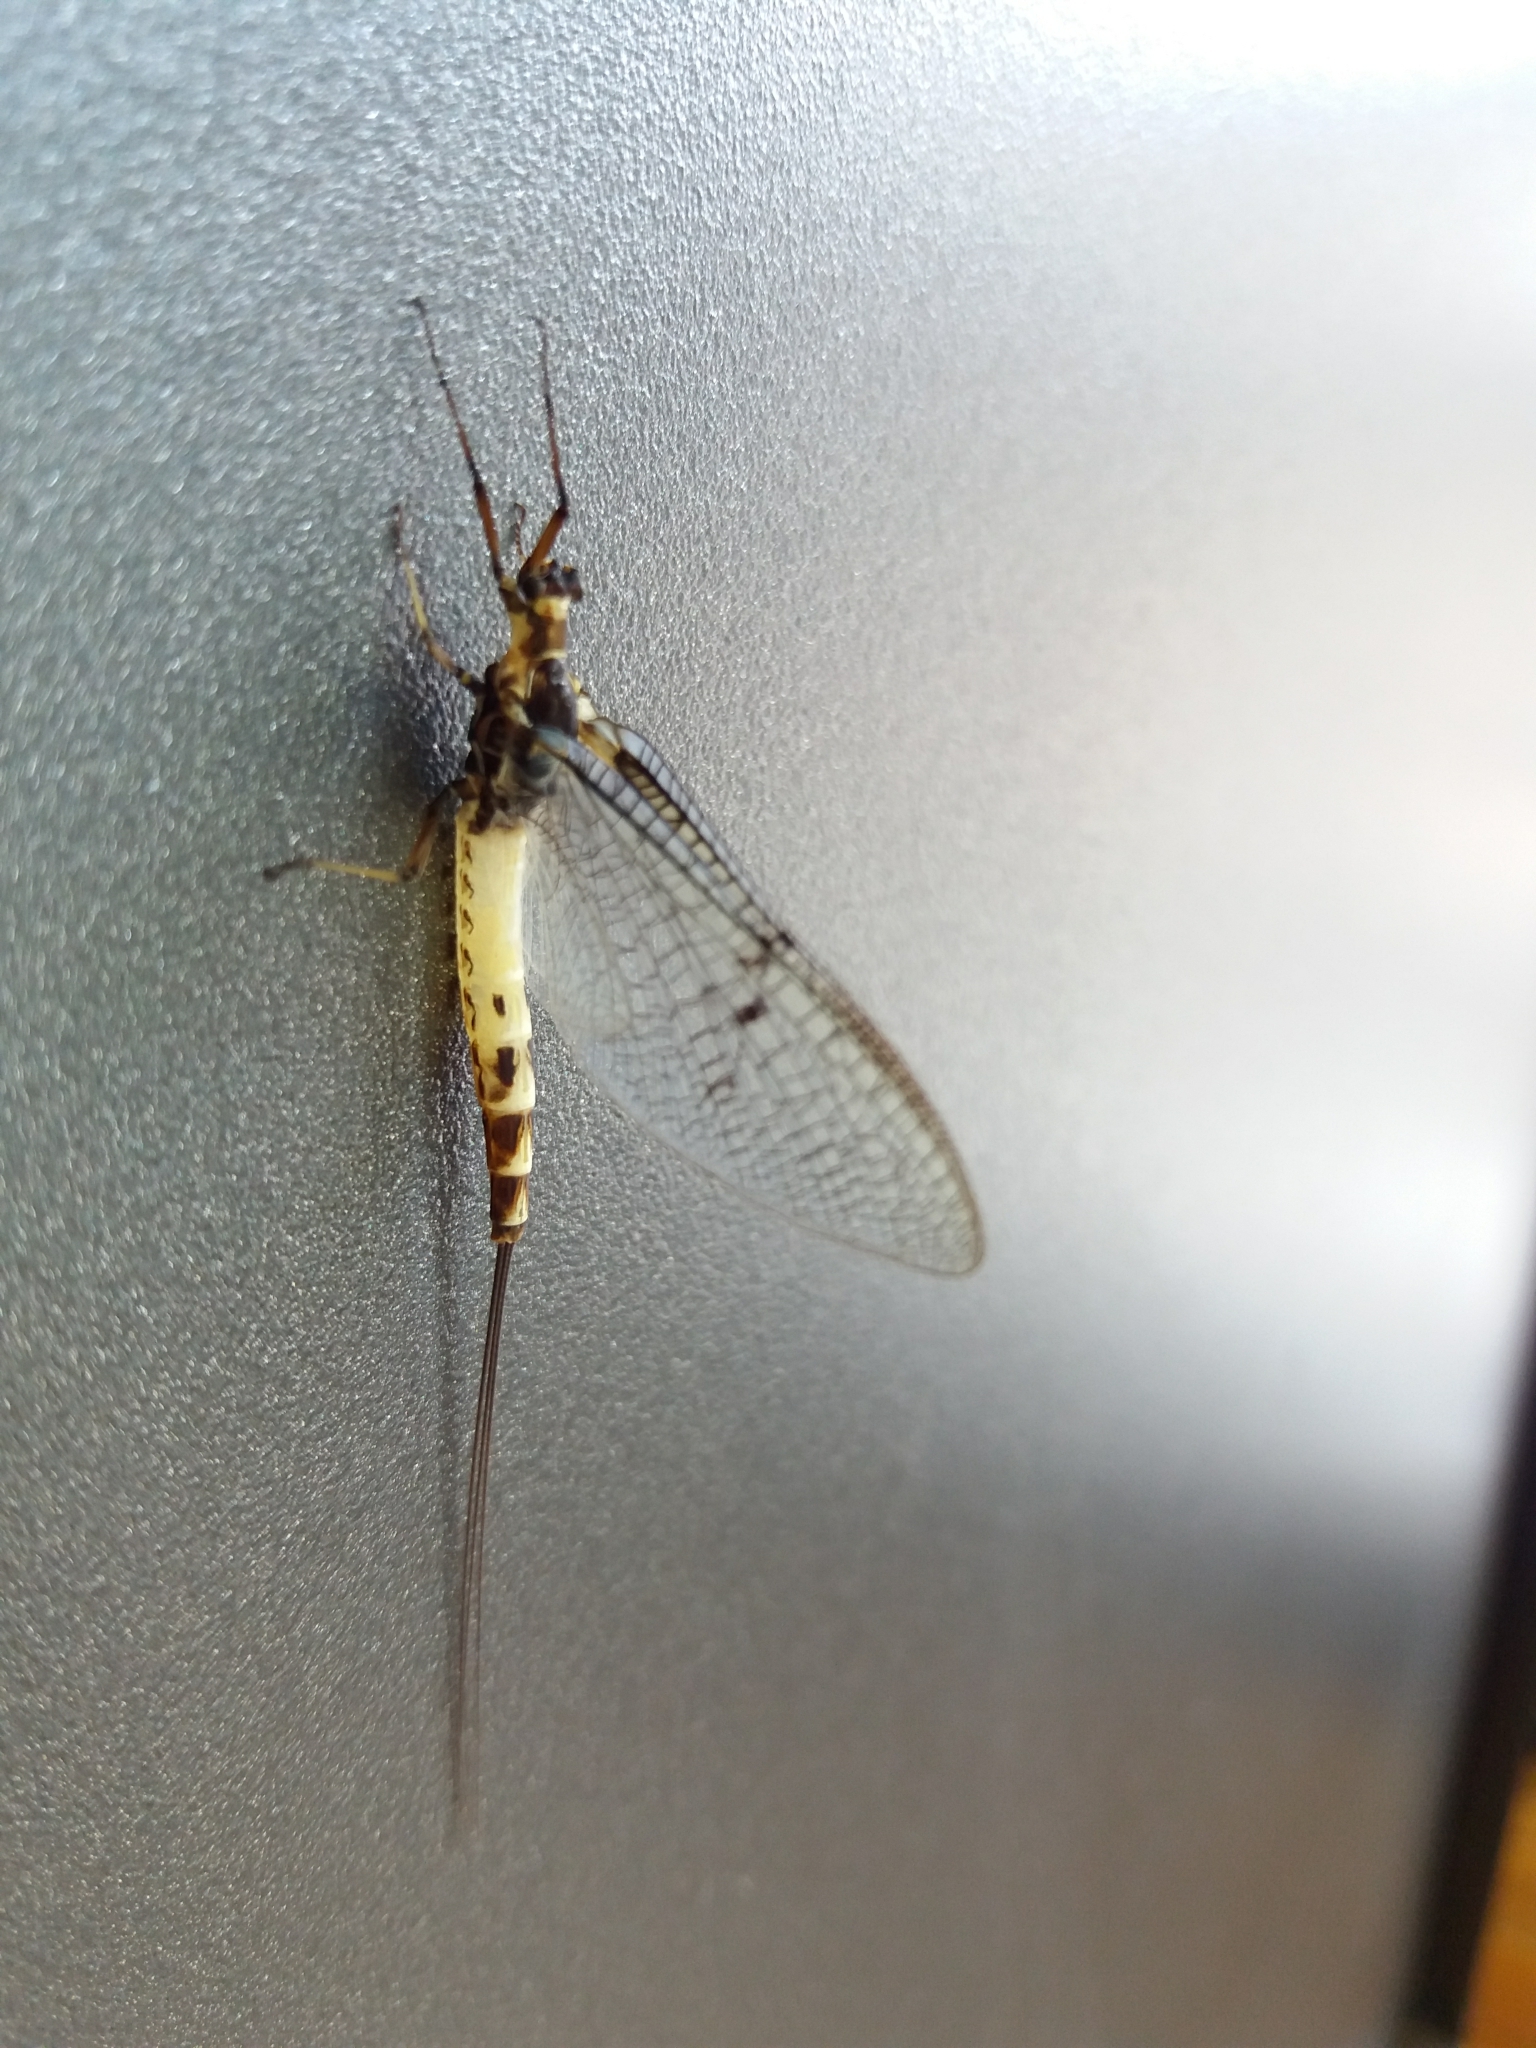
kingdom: Animalia
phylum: Arthropoda
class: Insecta
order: Ephemeroptera
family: Ephemeridae
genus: Ephemera
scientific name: Ephemera danica
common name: Green dun
